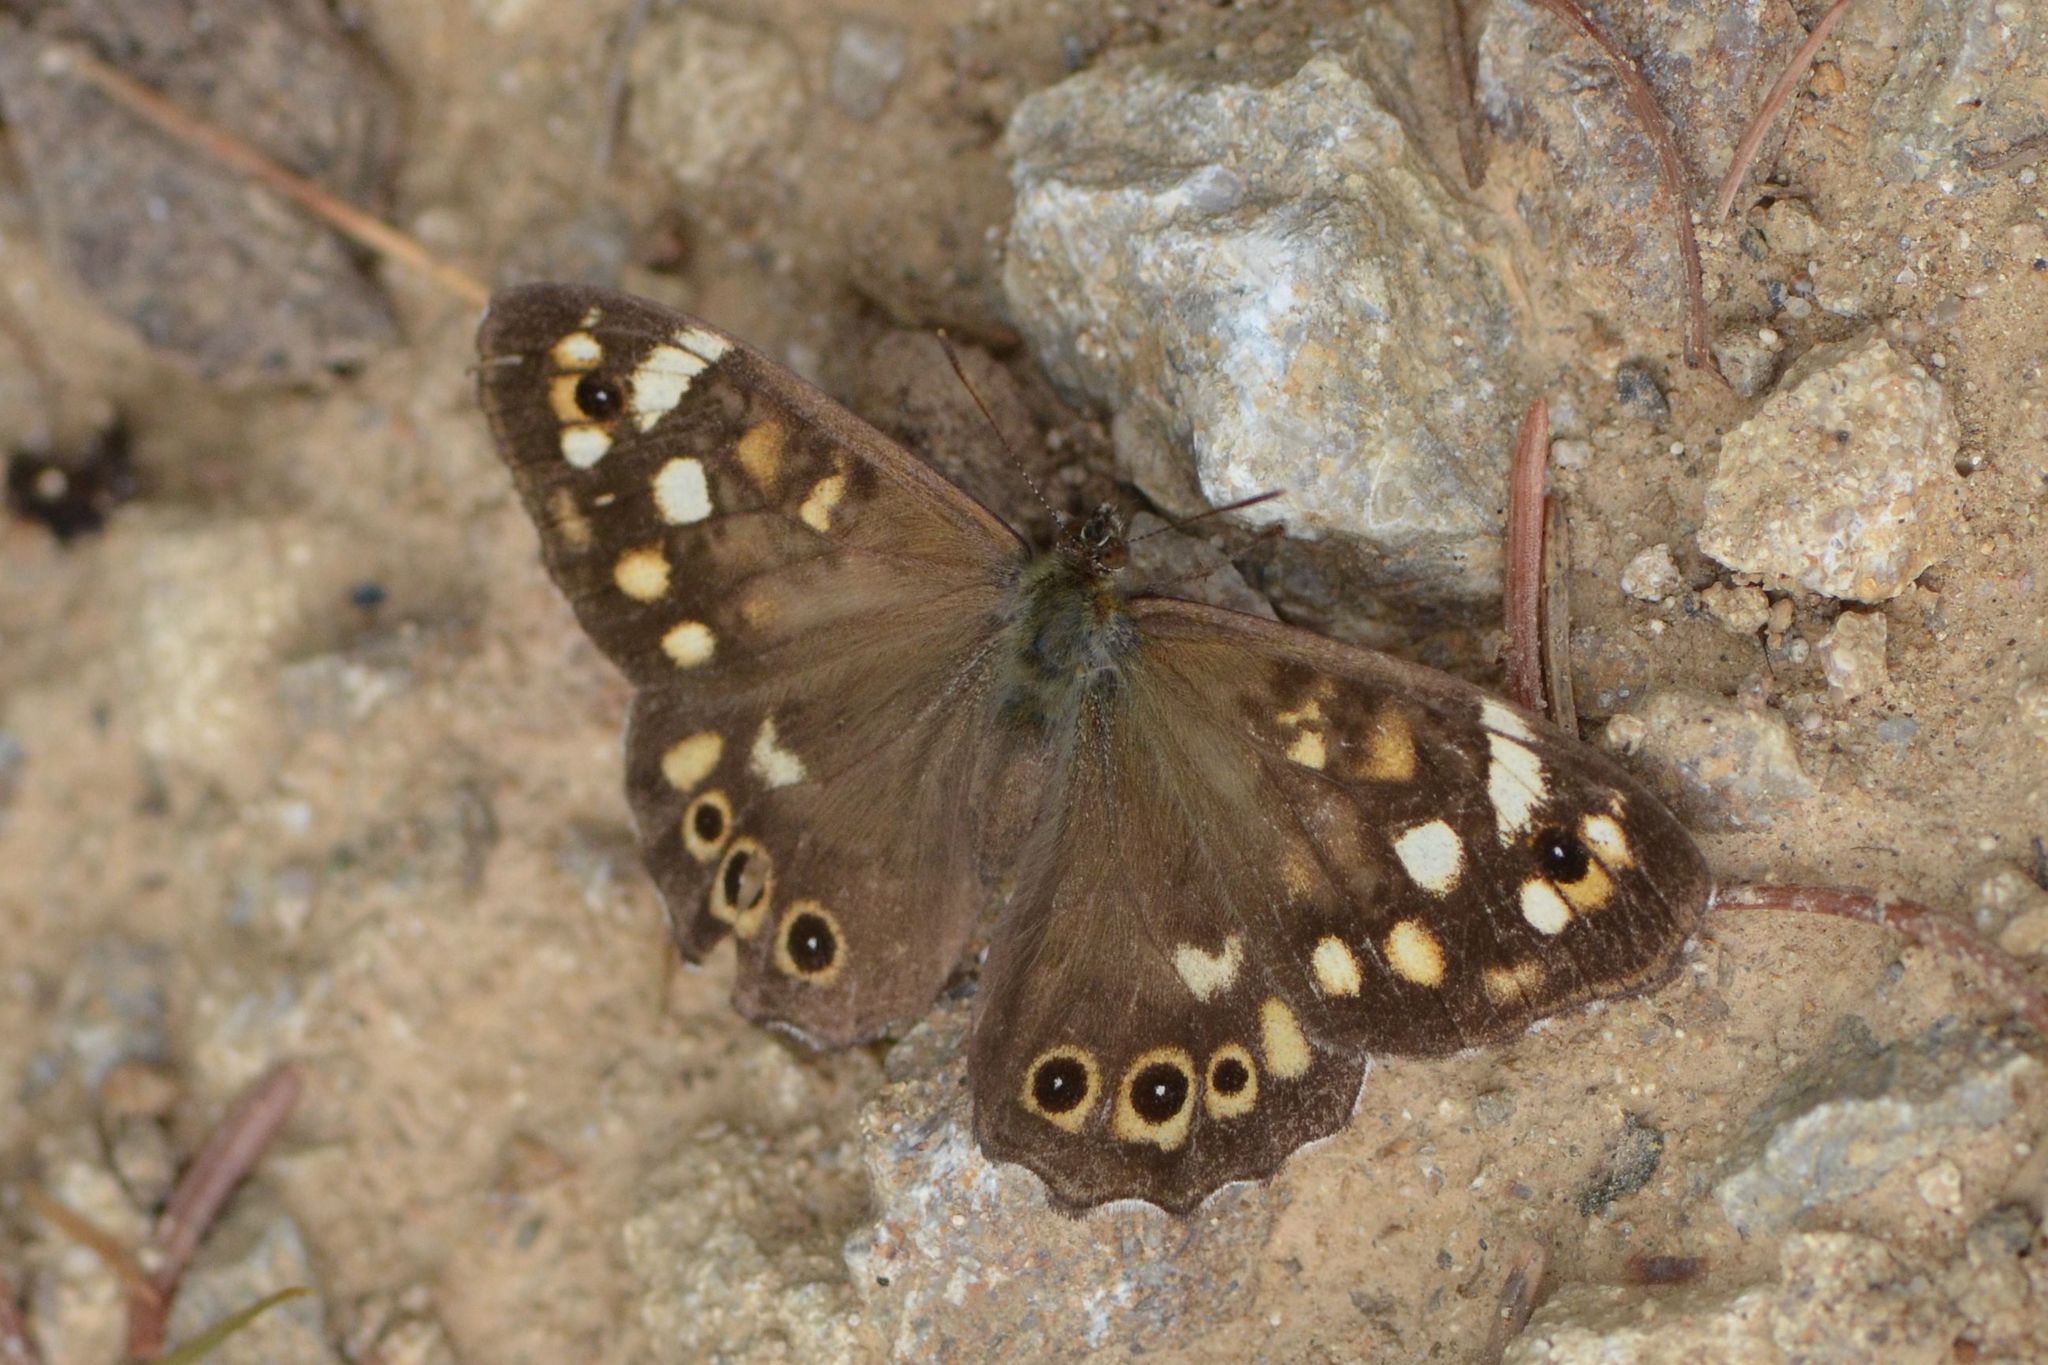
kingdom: Animalia
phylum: Arthropoda
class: Insecta
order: Lepidoptera
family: Nymphalidae
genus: Pararge
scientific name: Pararge aegeria
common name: Speckled wood
